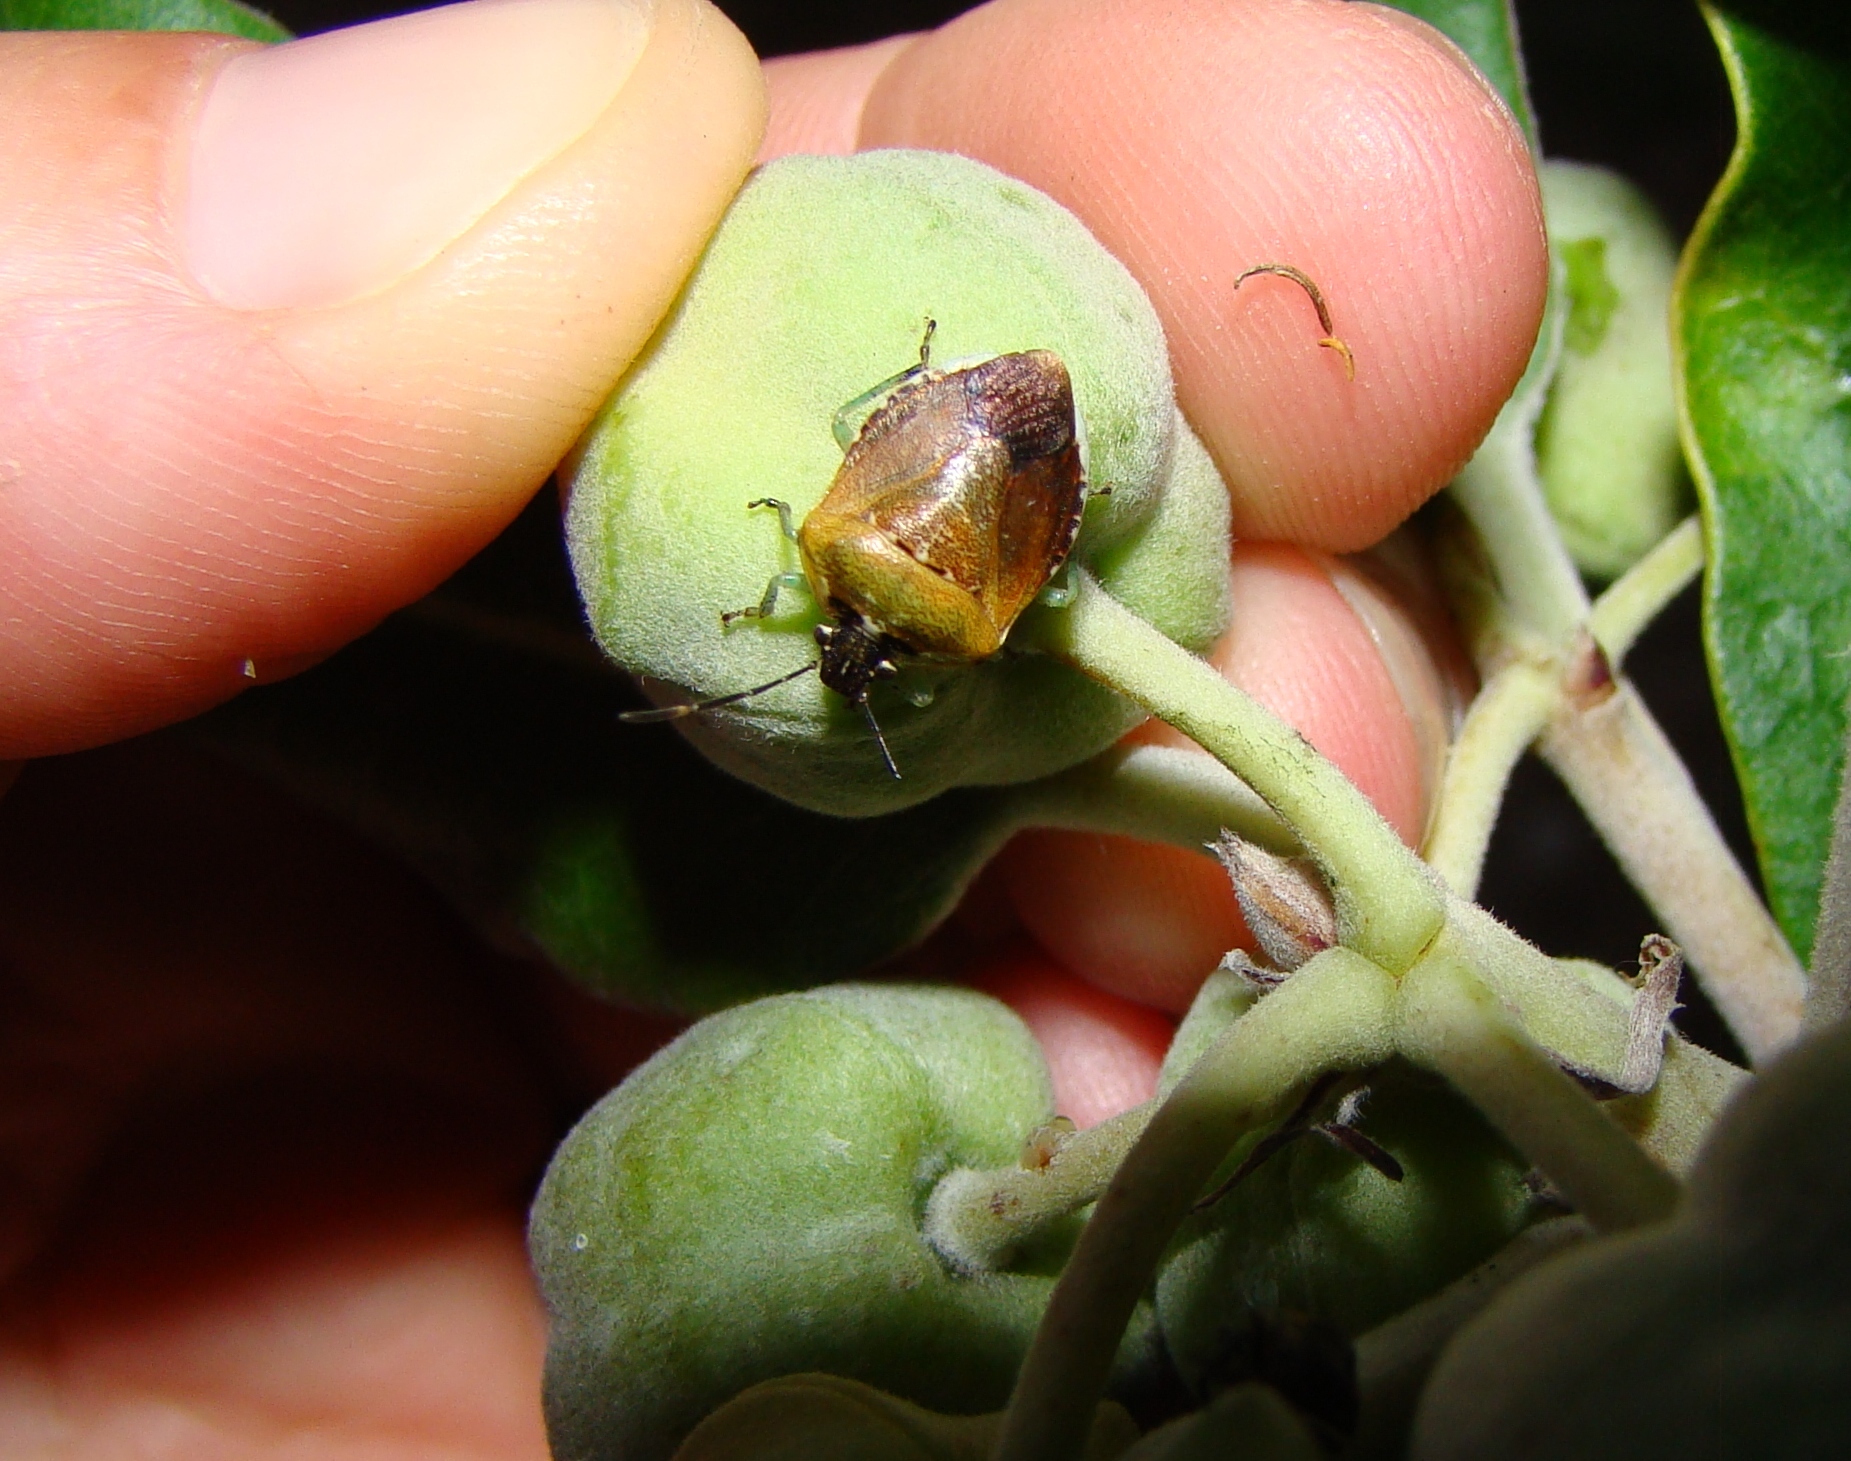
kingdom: Animalia
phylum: Arthropoda
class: Insecta
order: Hemiptera
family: Pentatomidae
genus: Monteithiella
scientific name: Monteithiella
